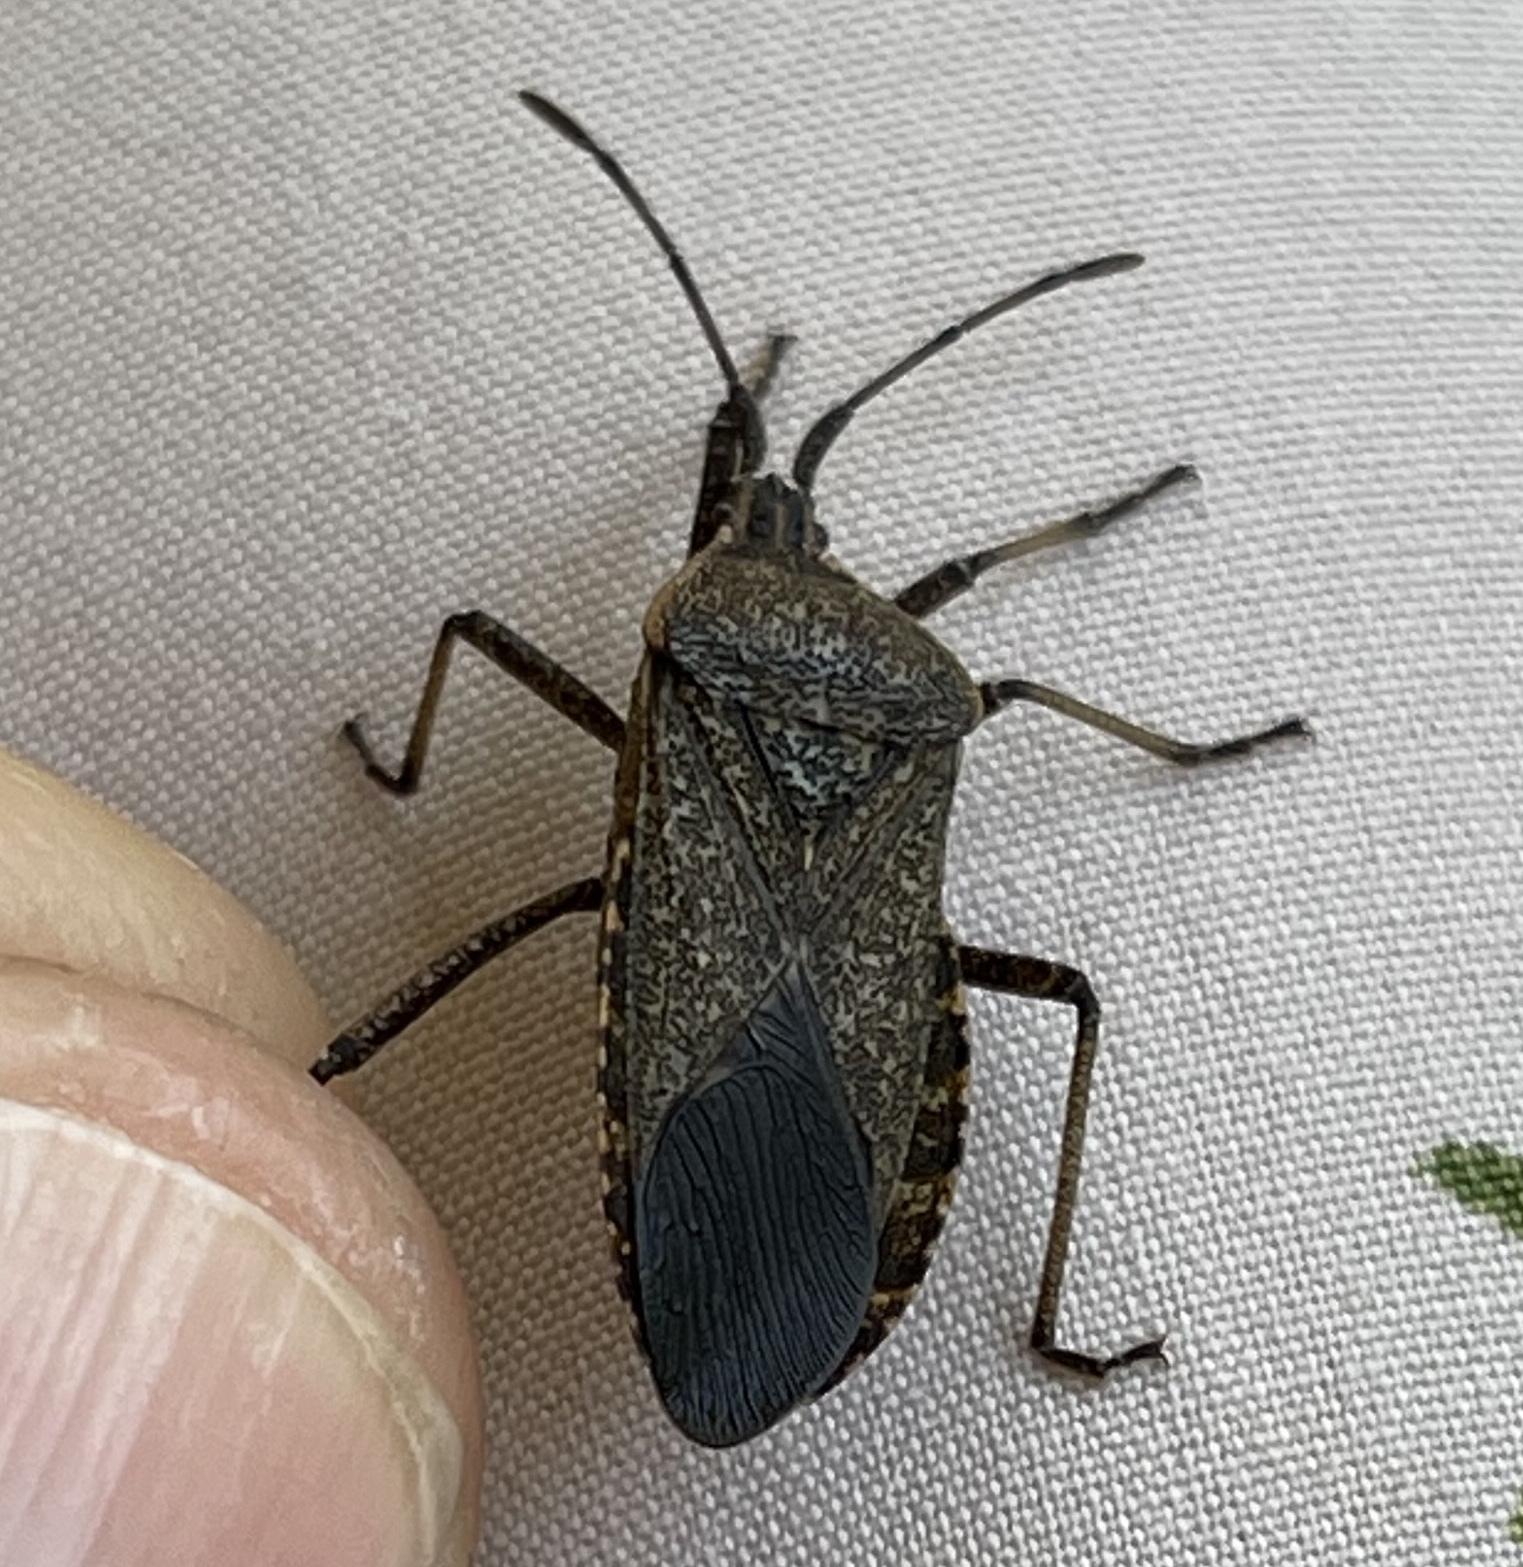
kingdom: Animalia
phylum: Arthropoda
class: Insecta
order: Hemiptera
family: Coreidae
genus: Anasa
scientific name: Anasa tristis
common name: Squash bug
